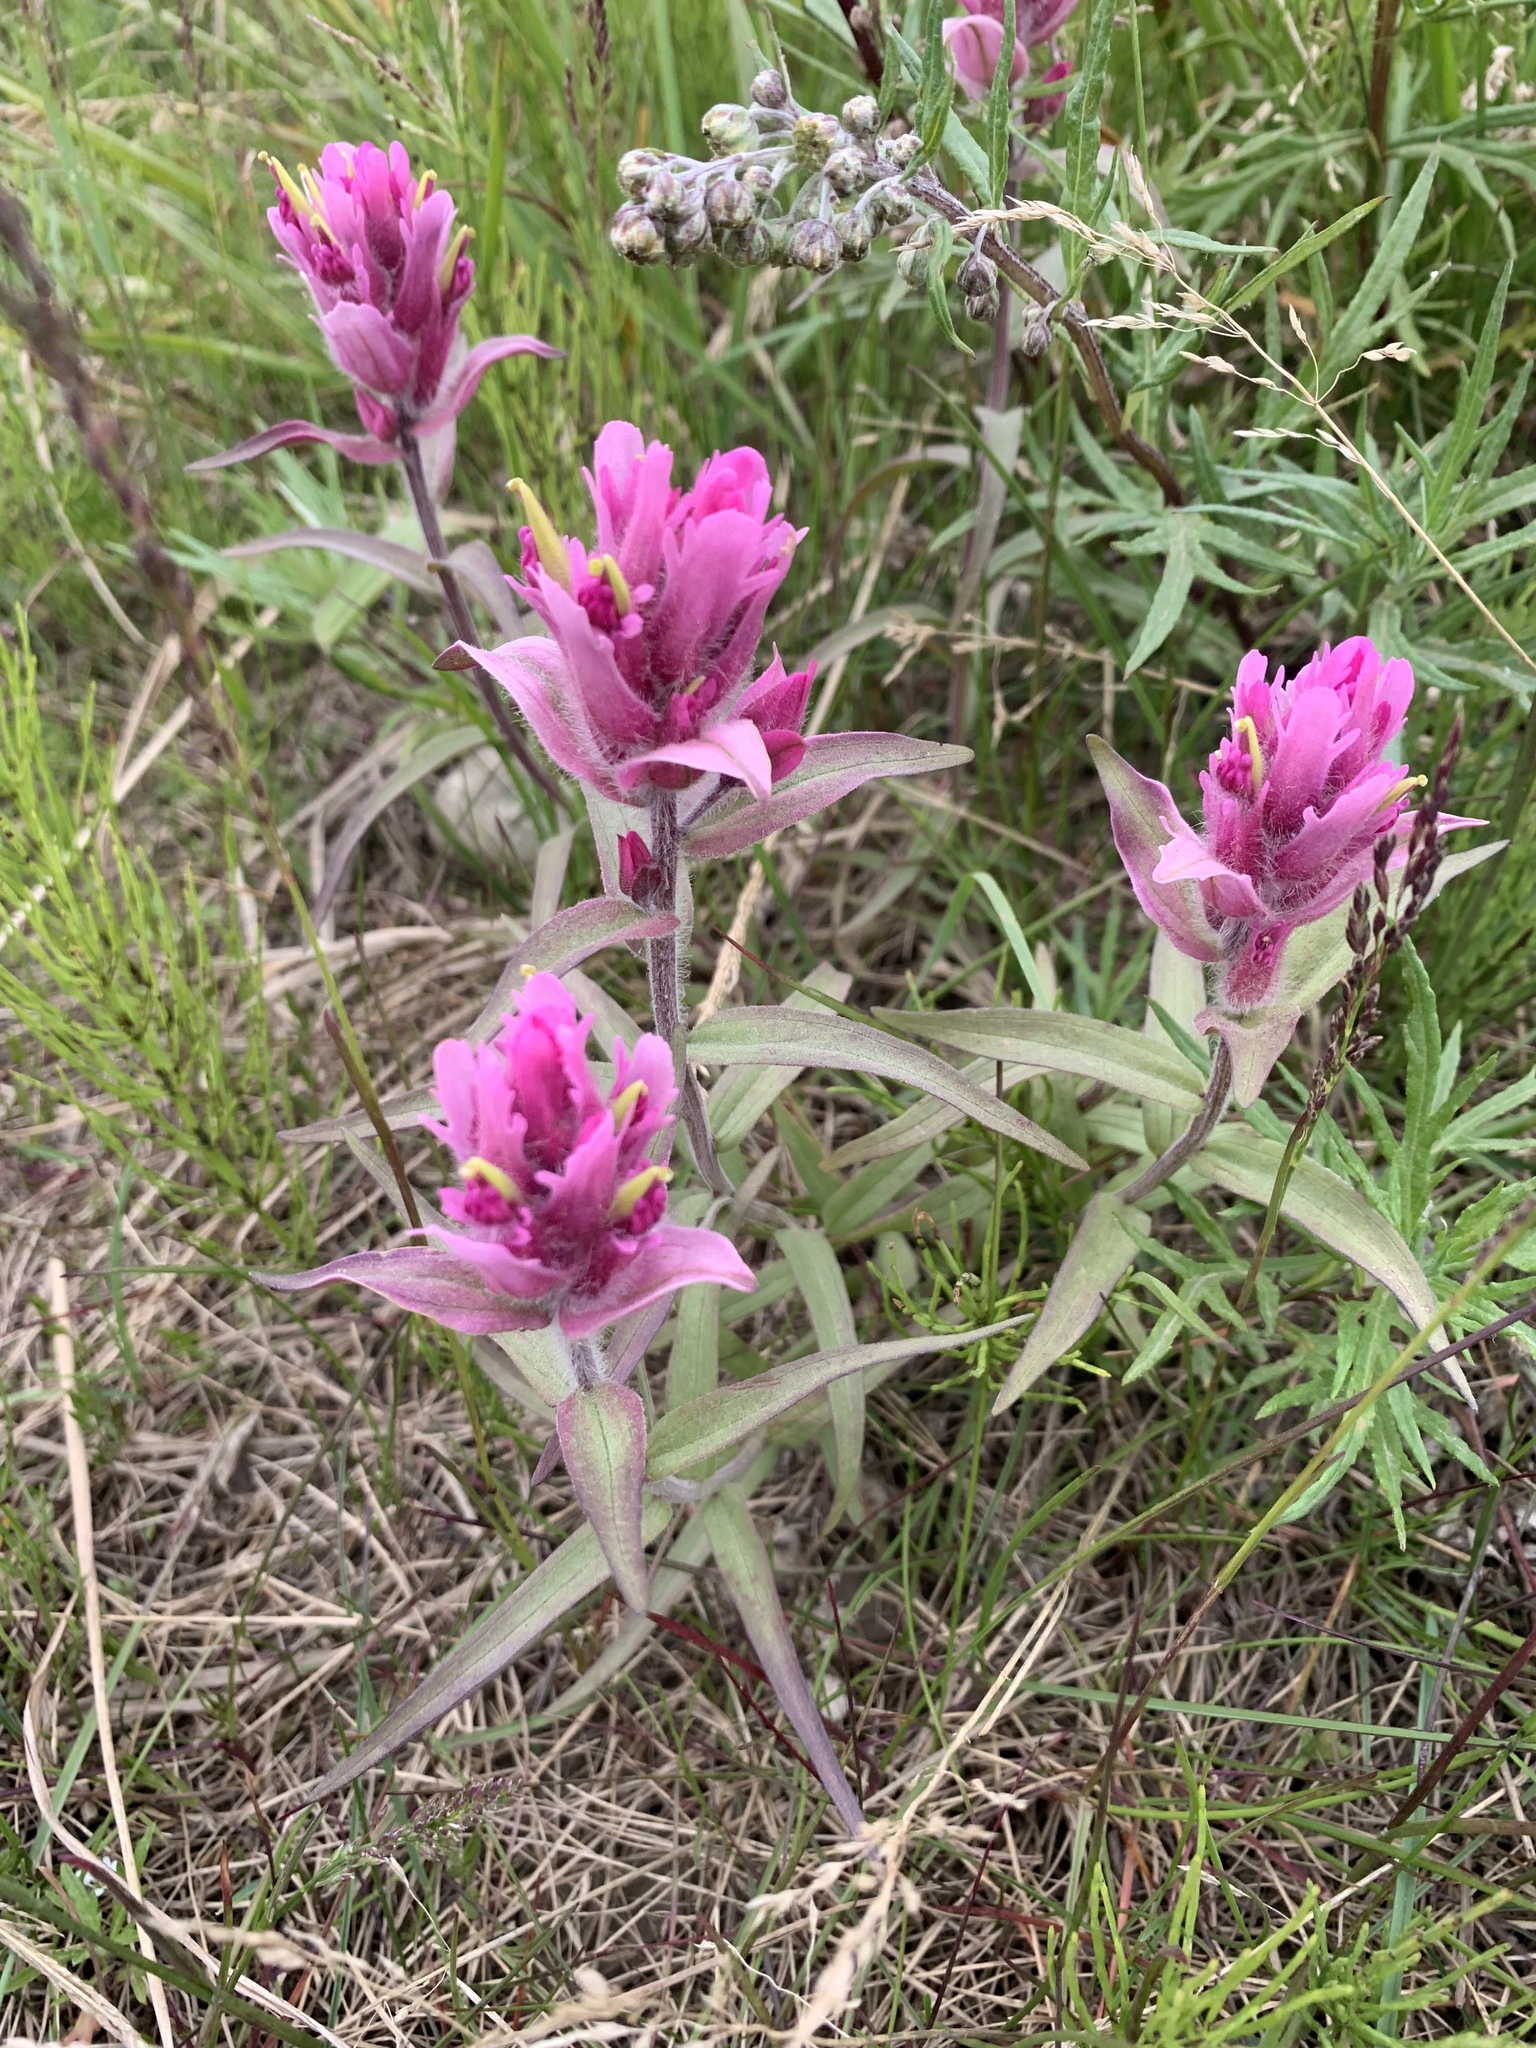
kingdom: Plantae
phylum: Tracheophyta
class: Magnoliopsida
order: Lamiales
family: Orobanchaceae
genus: Castilleja
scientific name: Castilleja elegans
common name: Elegant paintbrush
